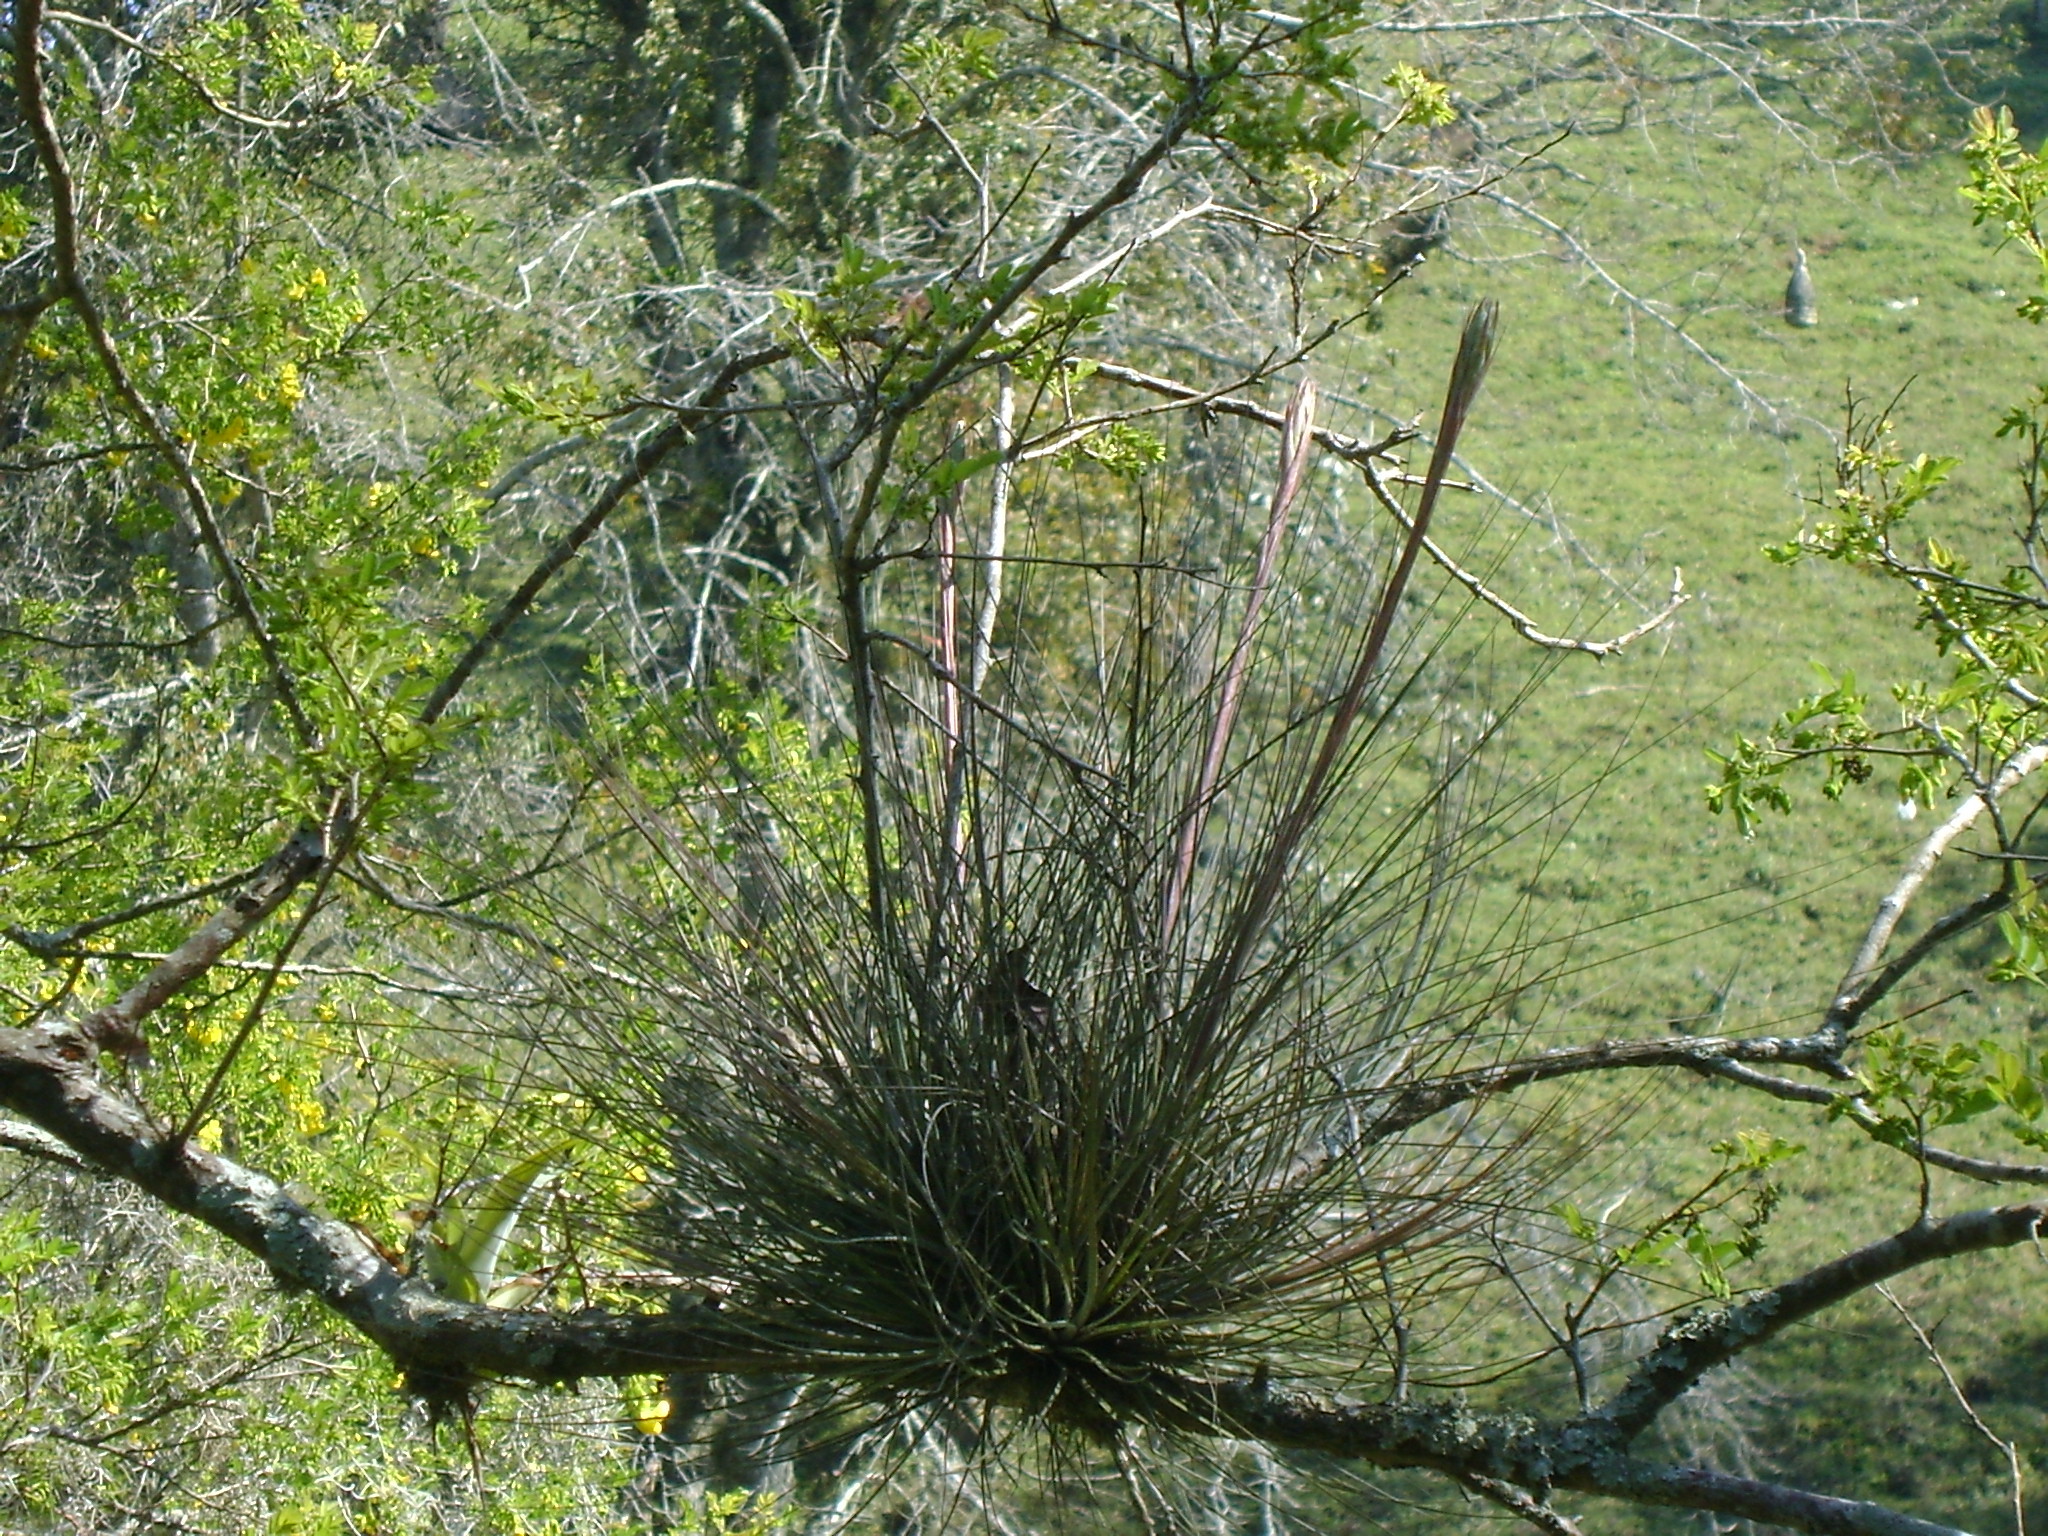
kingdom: Plantae
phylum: Tracheophyta
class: Liliopsida
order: Poales
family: Bromeliaceae
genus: Tillandsia
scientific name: Tillandsia juncea
